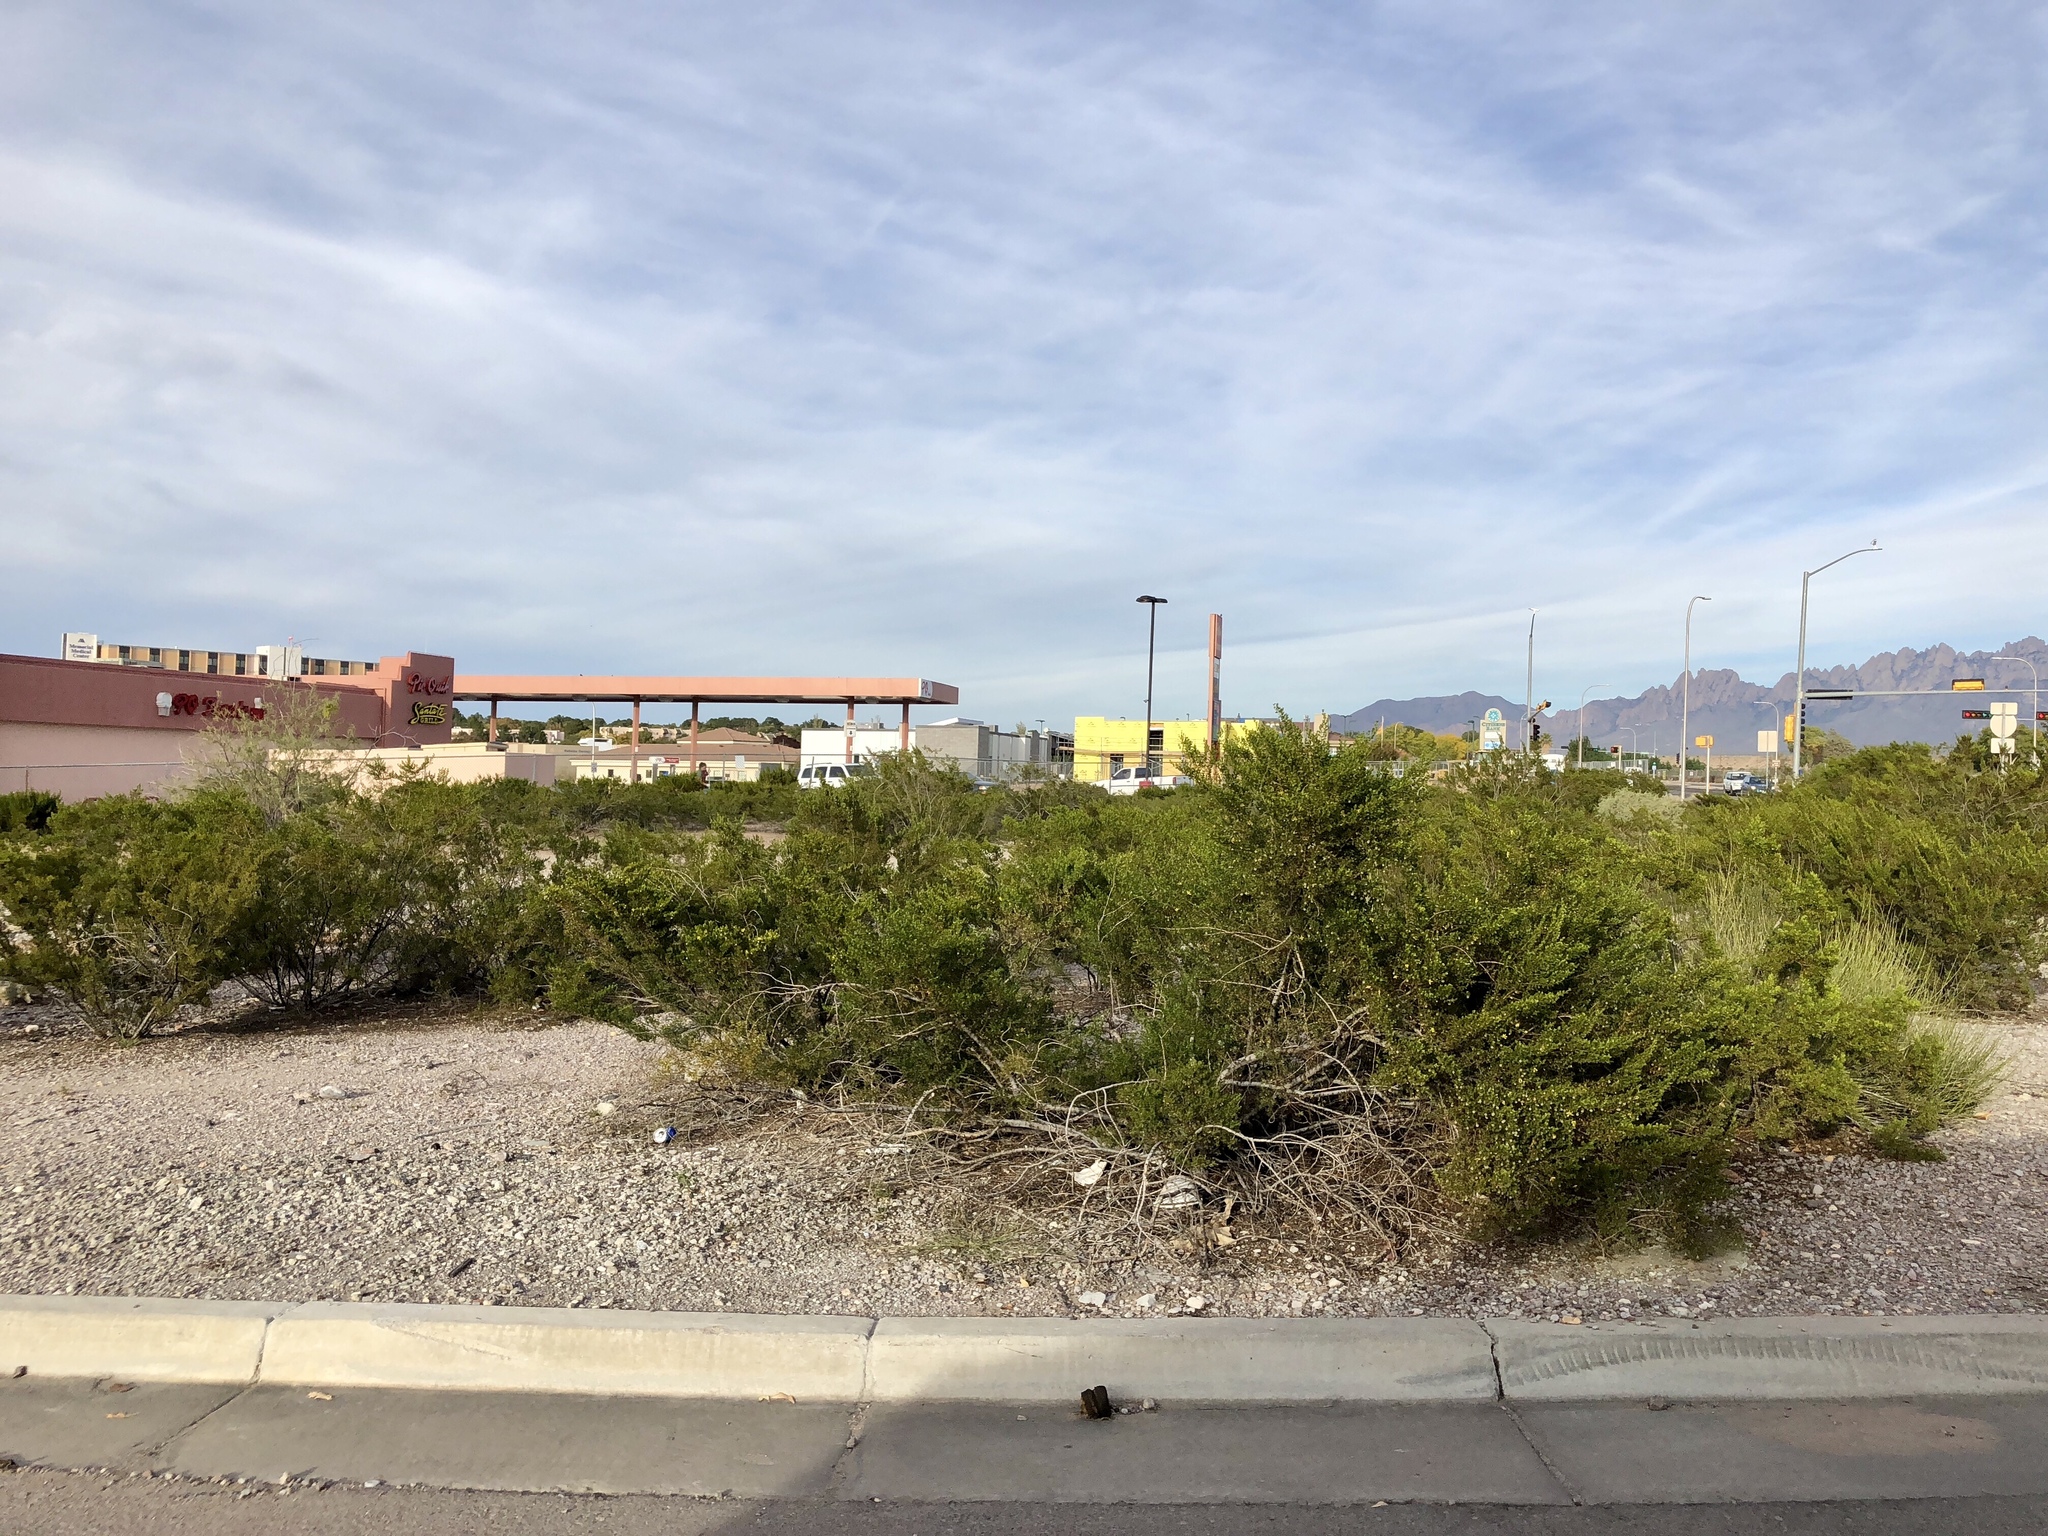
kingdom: Plantae
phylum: Tracheophyta
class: Magnoliopsida
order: Zygophyllales
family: Zygophyllaceae
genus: Larrea
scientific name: Larrea tridentata
